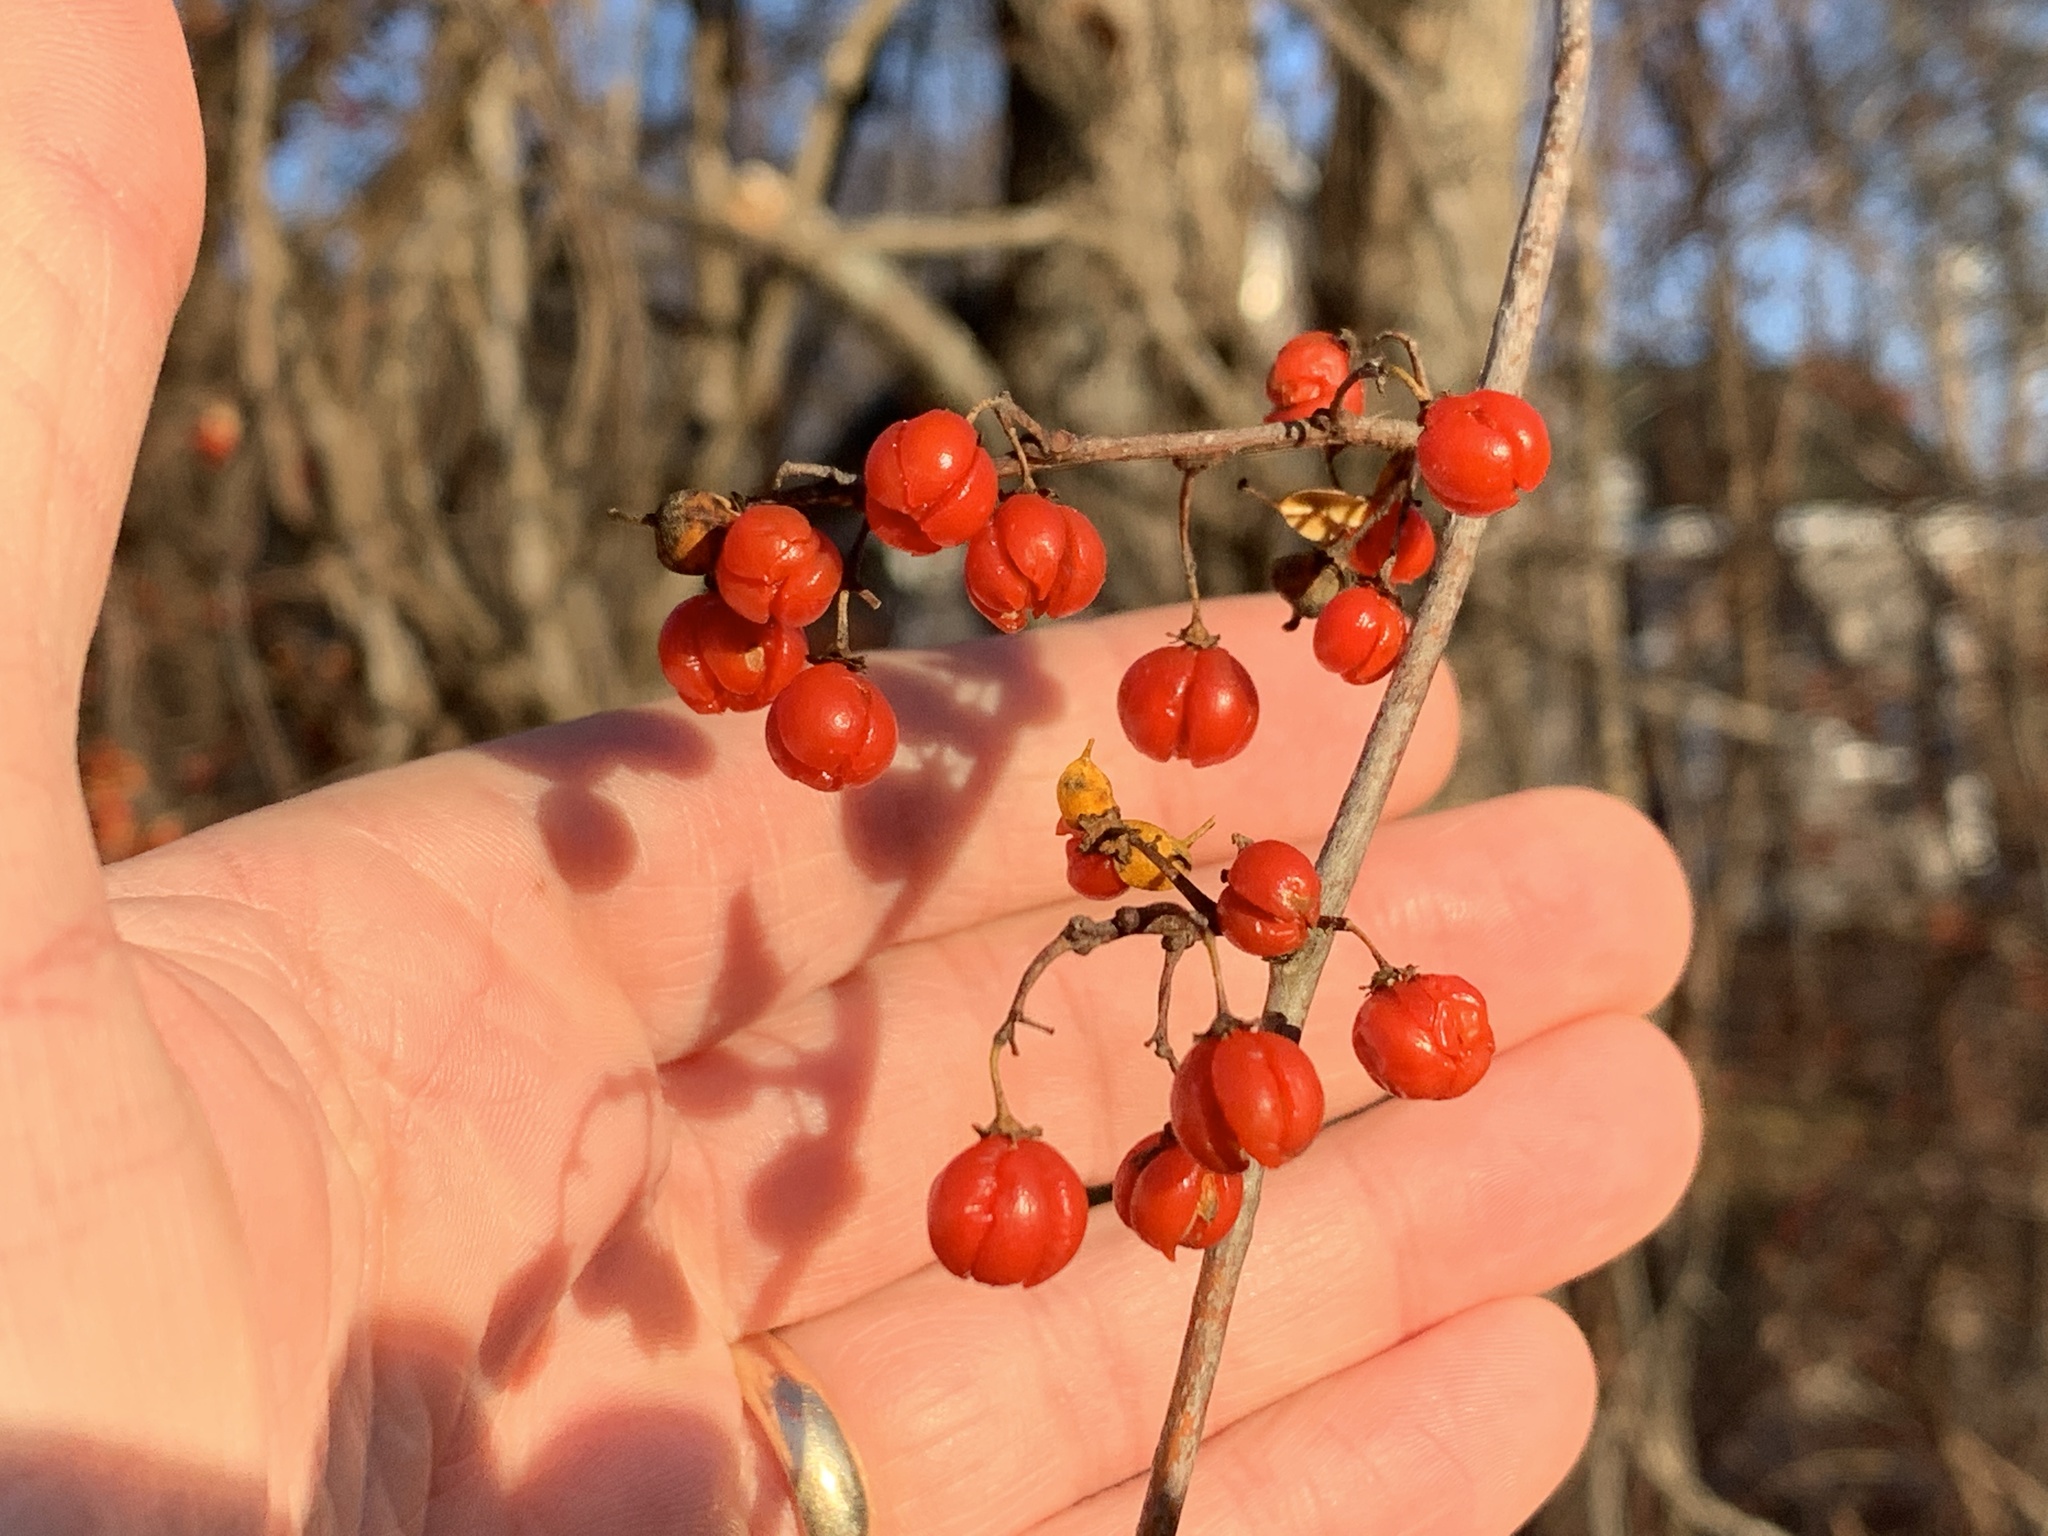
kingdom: Plantae
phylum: Tracheophyta
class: Magnoliopsida
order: Celastrales
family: Celastraceae
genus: Celastrus
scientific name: Celastrus orbiculatus
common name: Oriental bittersweet
